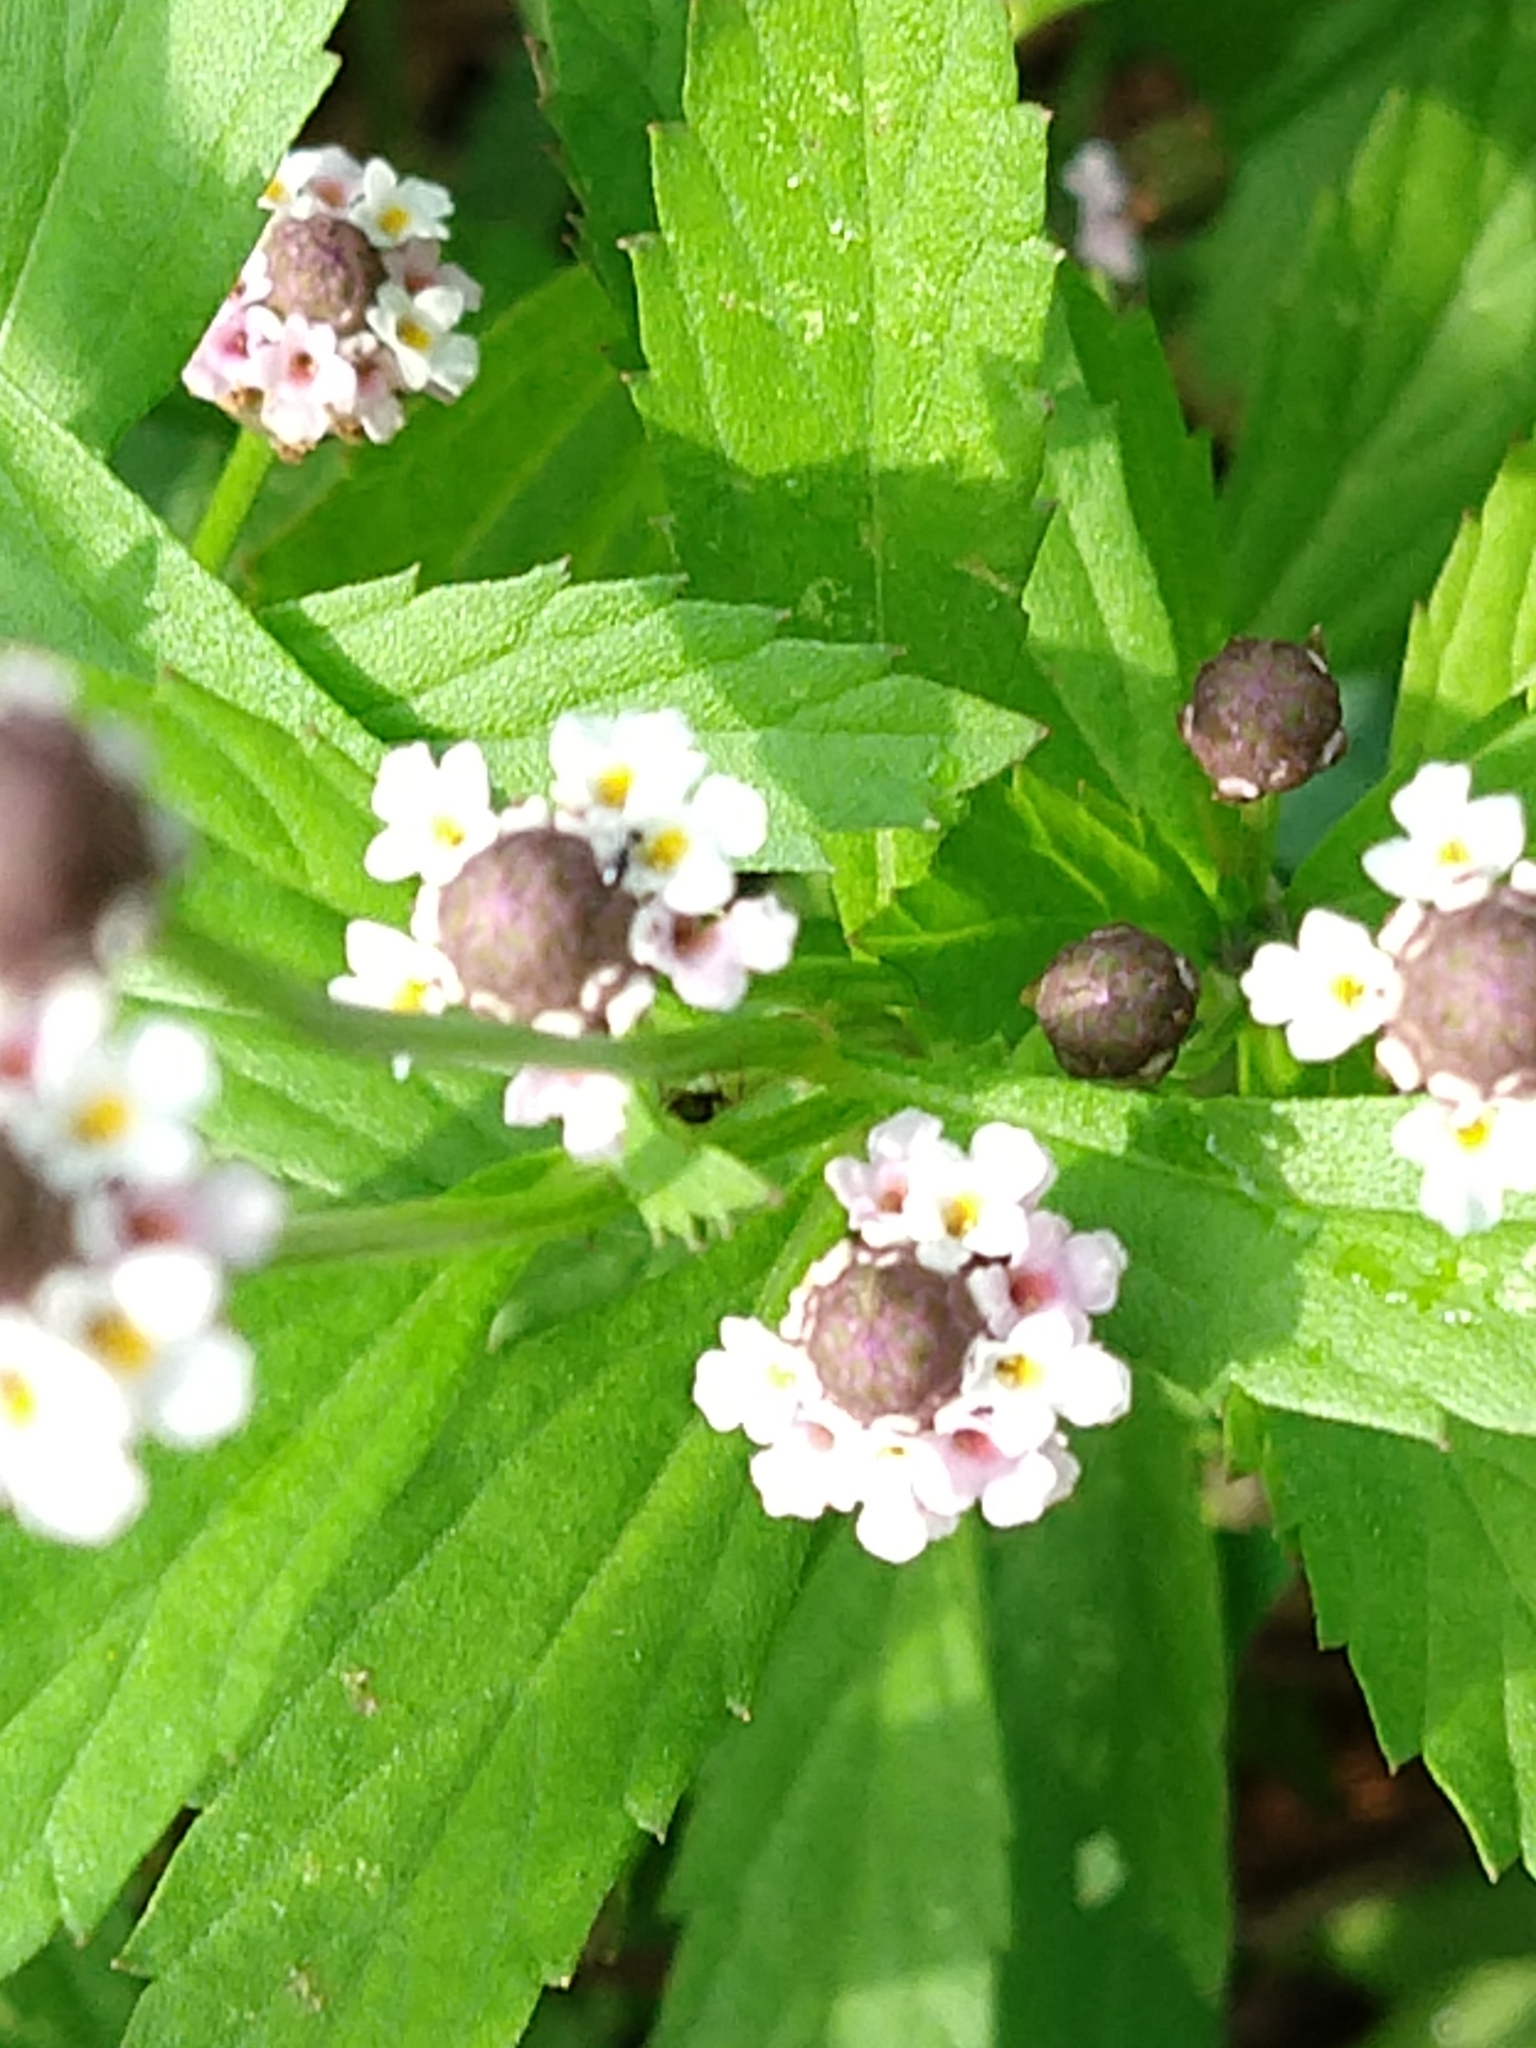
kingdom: Plantae
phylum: Tracheophyta
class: Magnoliopsida
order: Lamiales
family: Verbenaceae
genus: Phyla
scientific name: Phyla lanceolata
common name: Northern fogfruit
